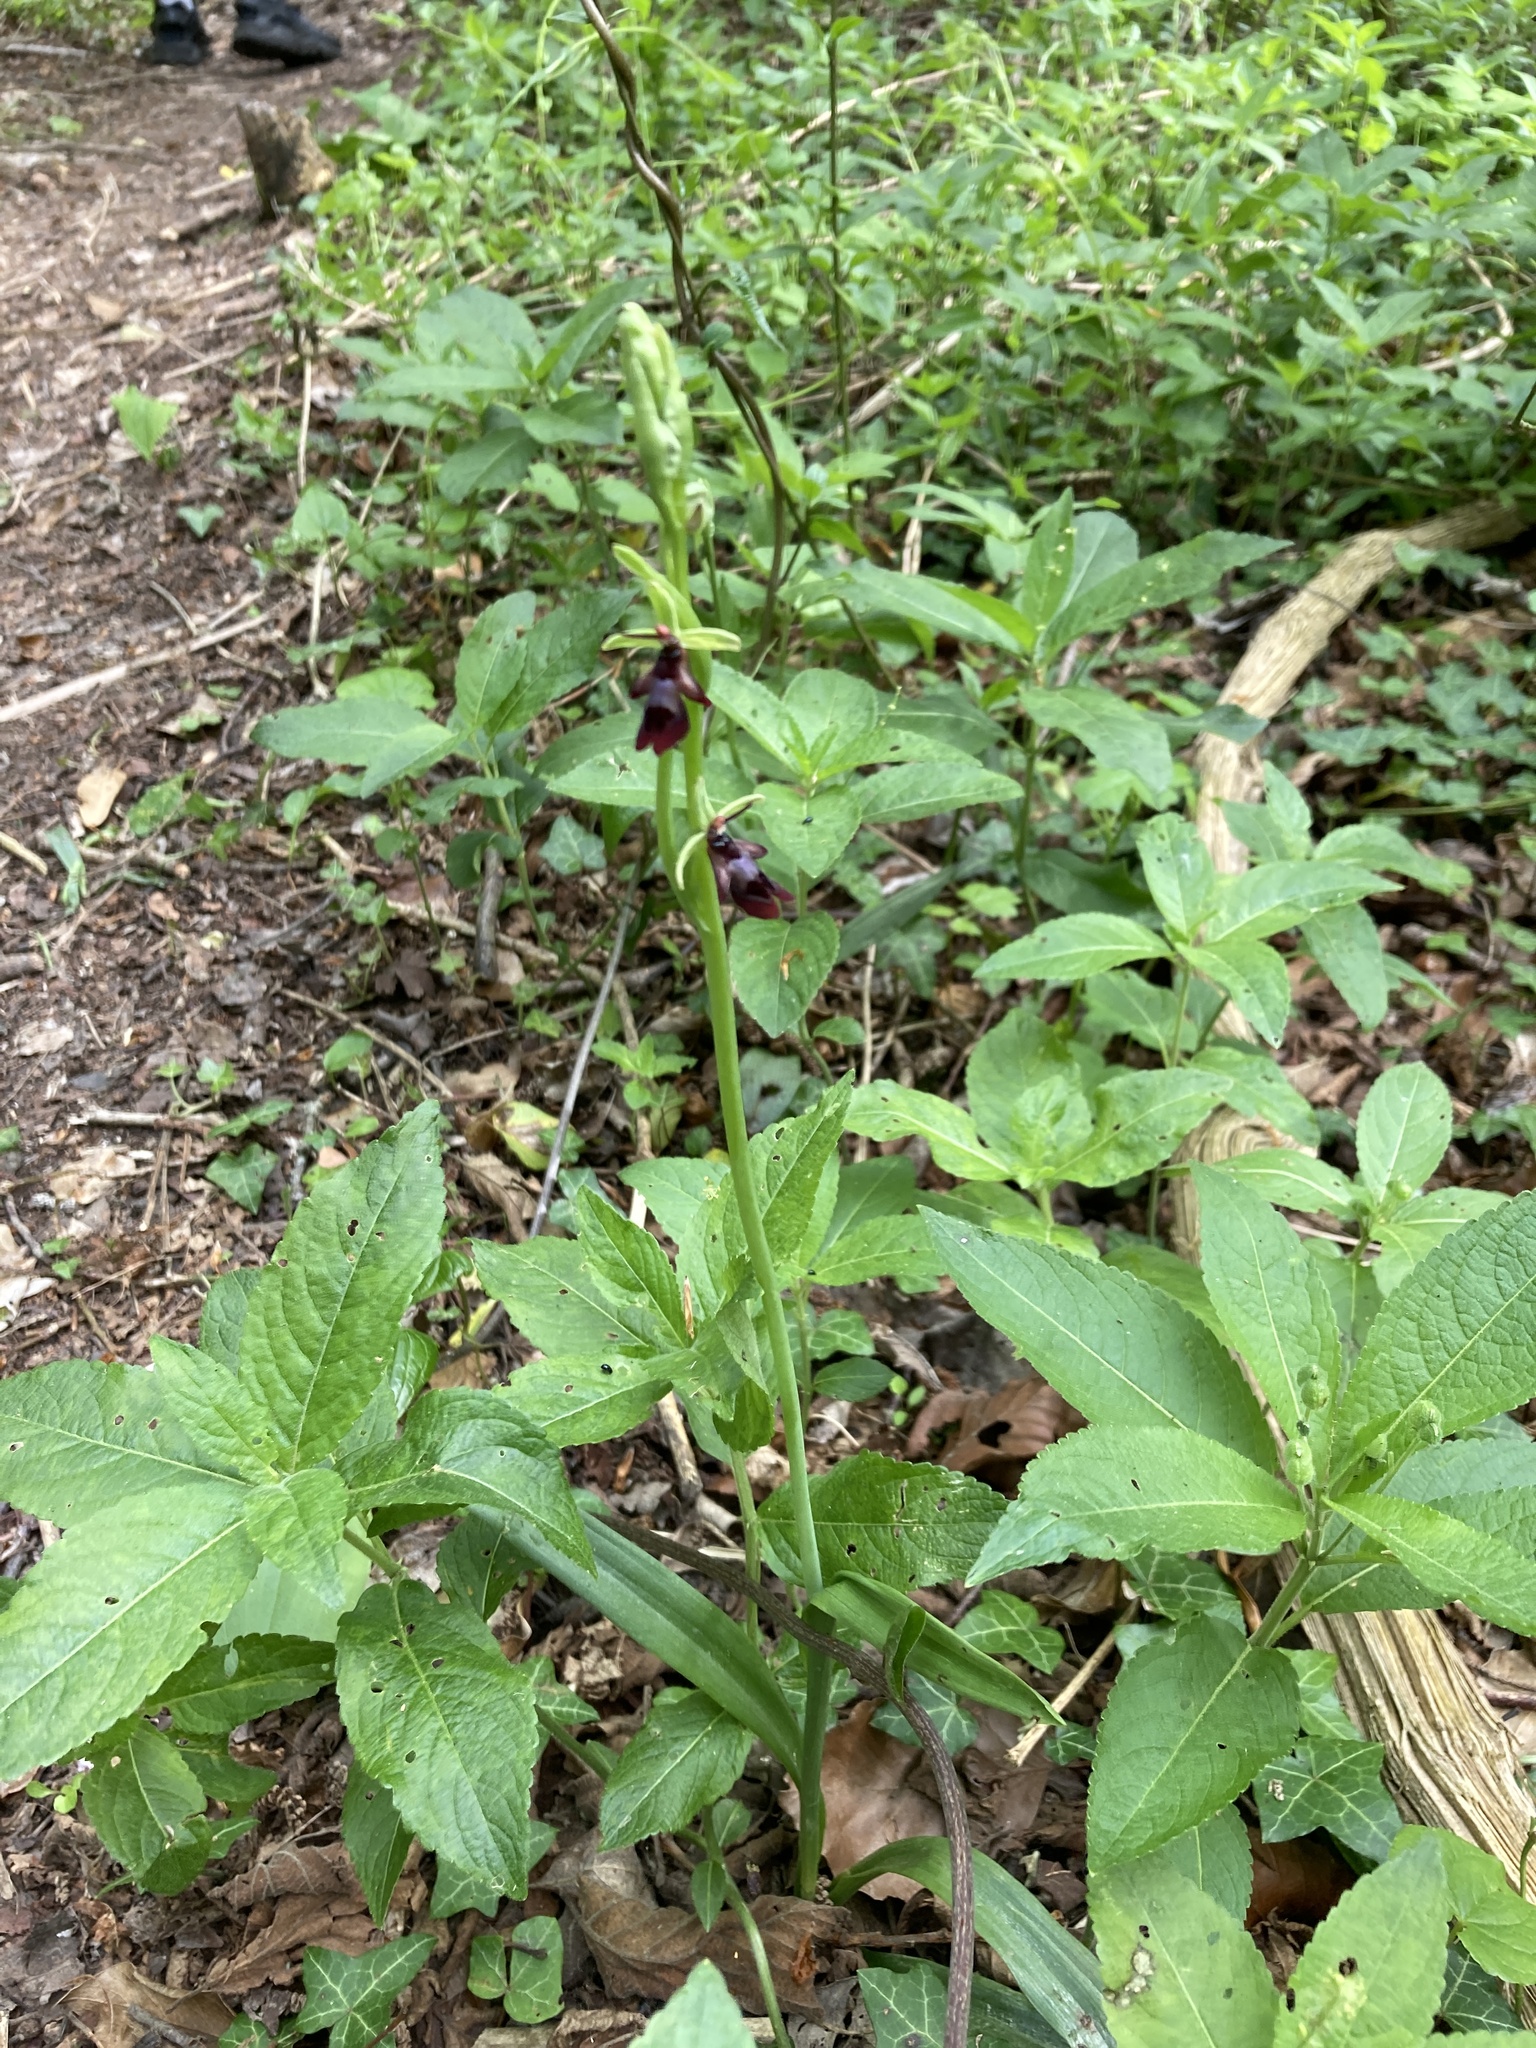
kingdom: Plantae
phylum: Tracheophyta
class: Liliopsida
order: Asparagales
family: Orchidaceae
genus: Ophrys
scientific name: Ophrys insectifera
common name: Fly orchid
